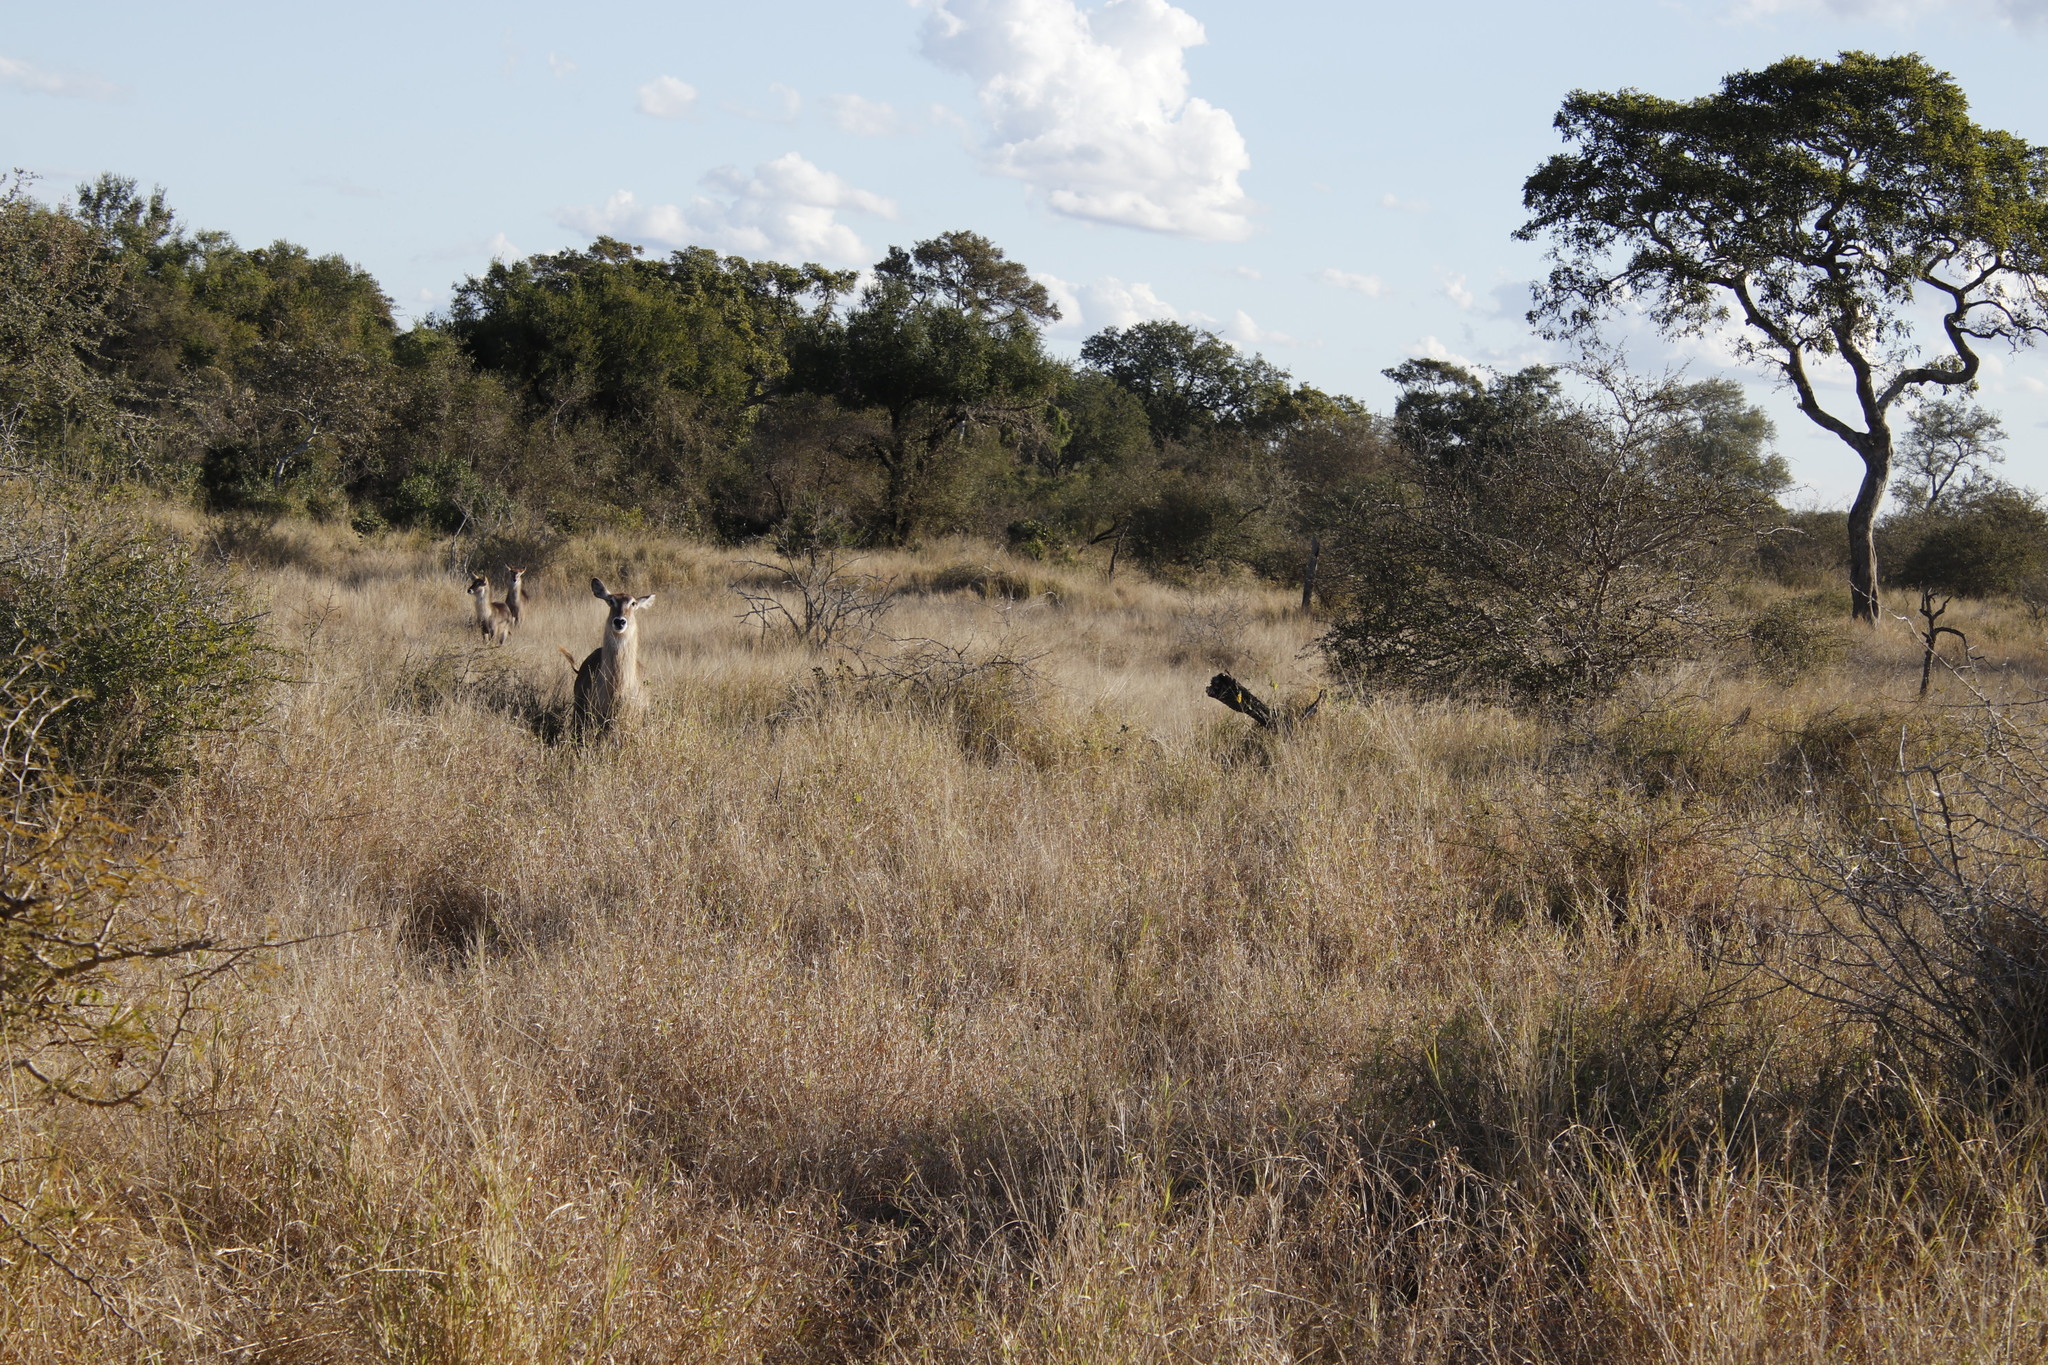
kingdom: Animalia
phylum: Chordata
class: Mammalia
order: Artiodactyla
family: Bovidae
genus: Kobus
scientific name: Kobus ellipsiprymnus
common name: Waterbuck
